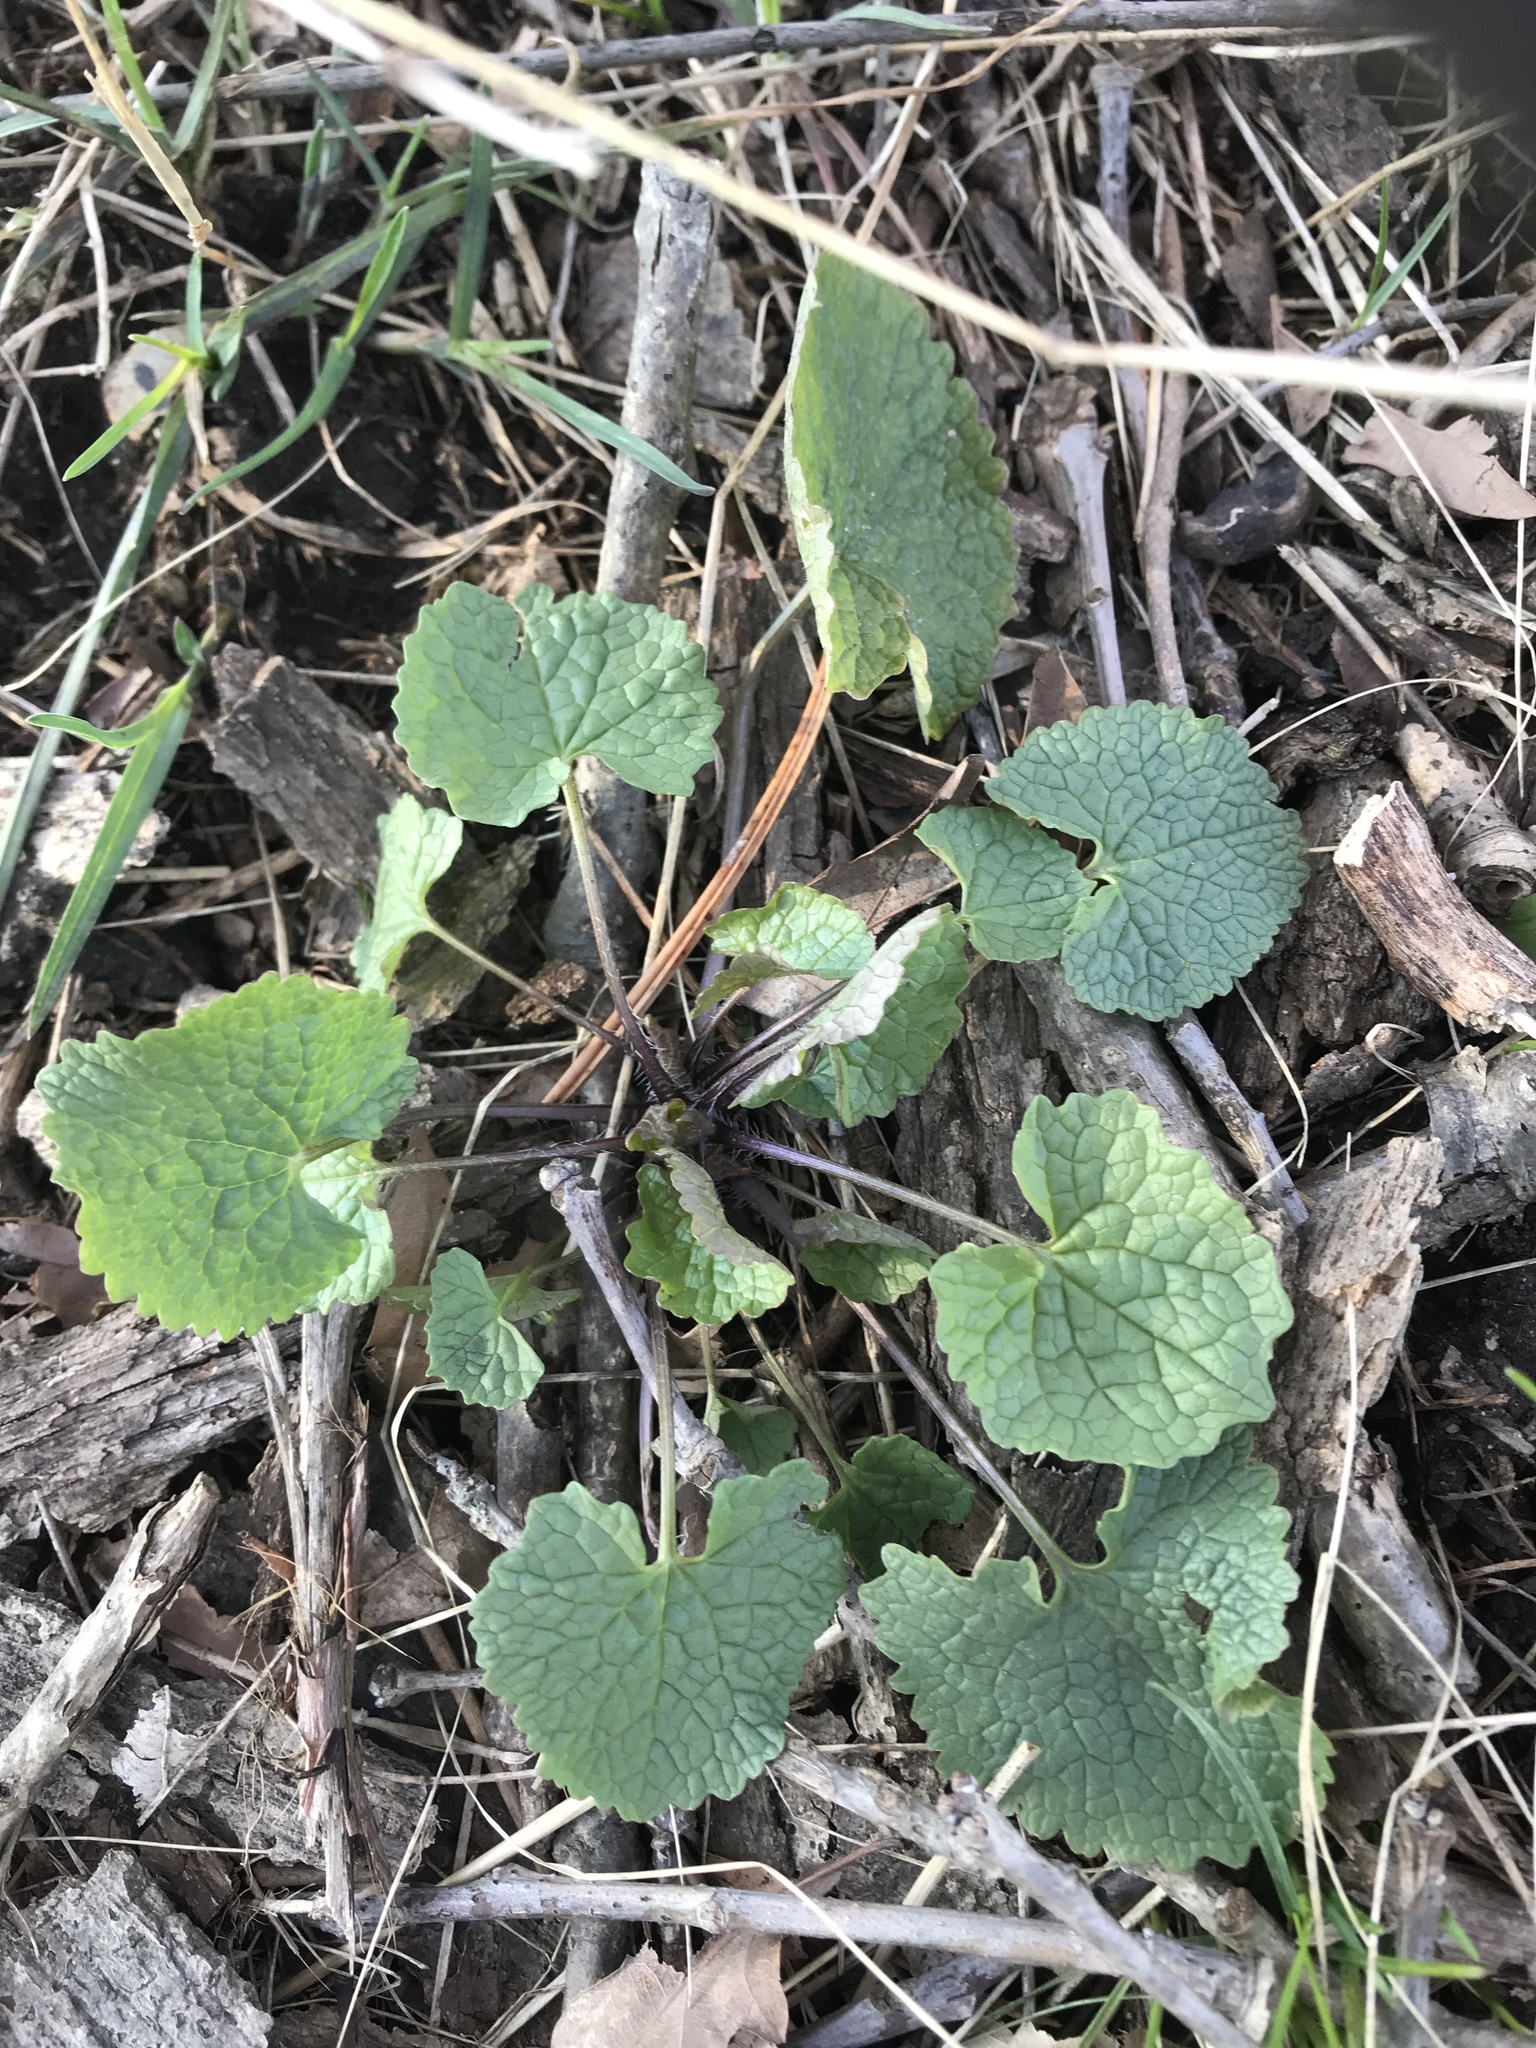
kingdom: Plantae
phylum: Tracheophyta
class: Magnoliopsida
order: Brassicales
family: Brassicaceae
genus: Alliaria
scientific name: Alliaria petiolata
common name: Garlic mustard
